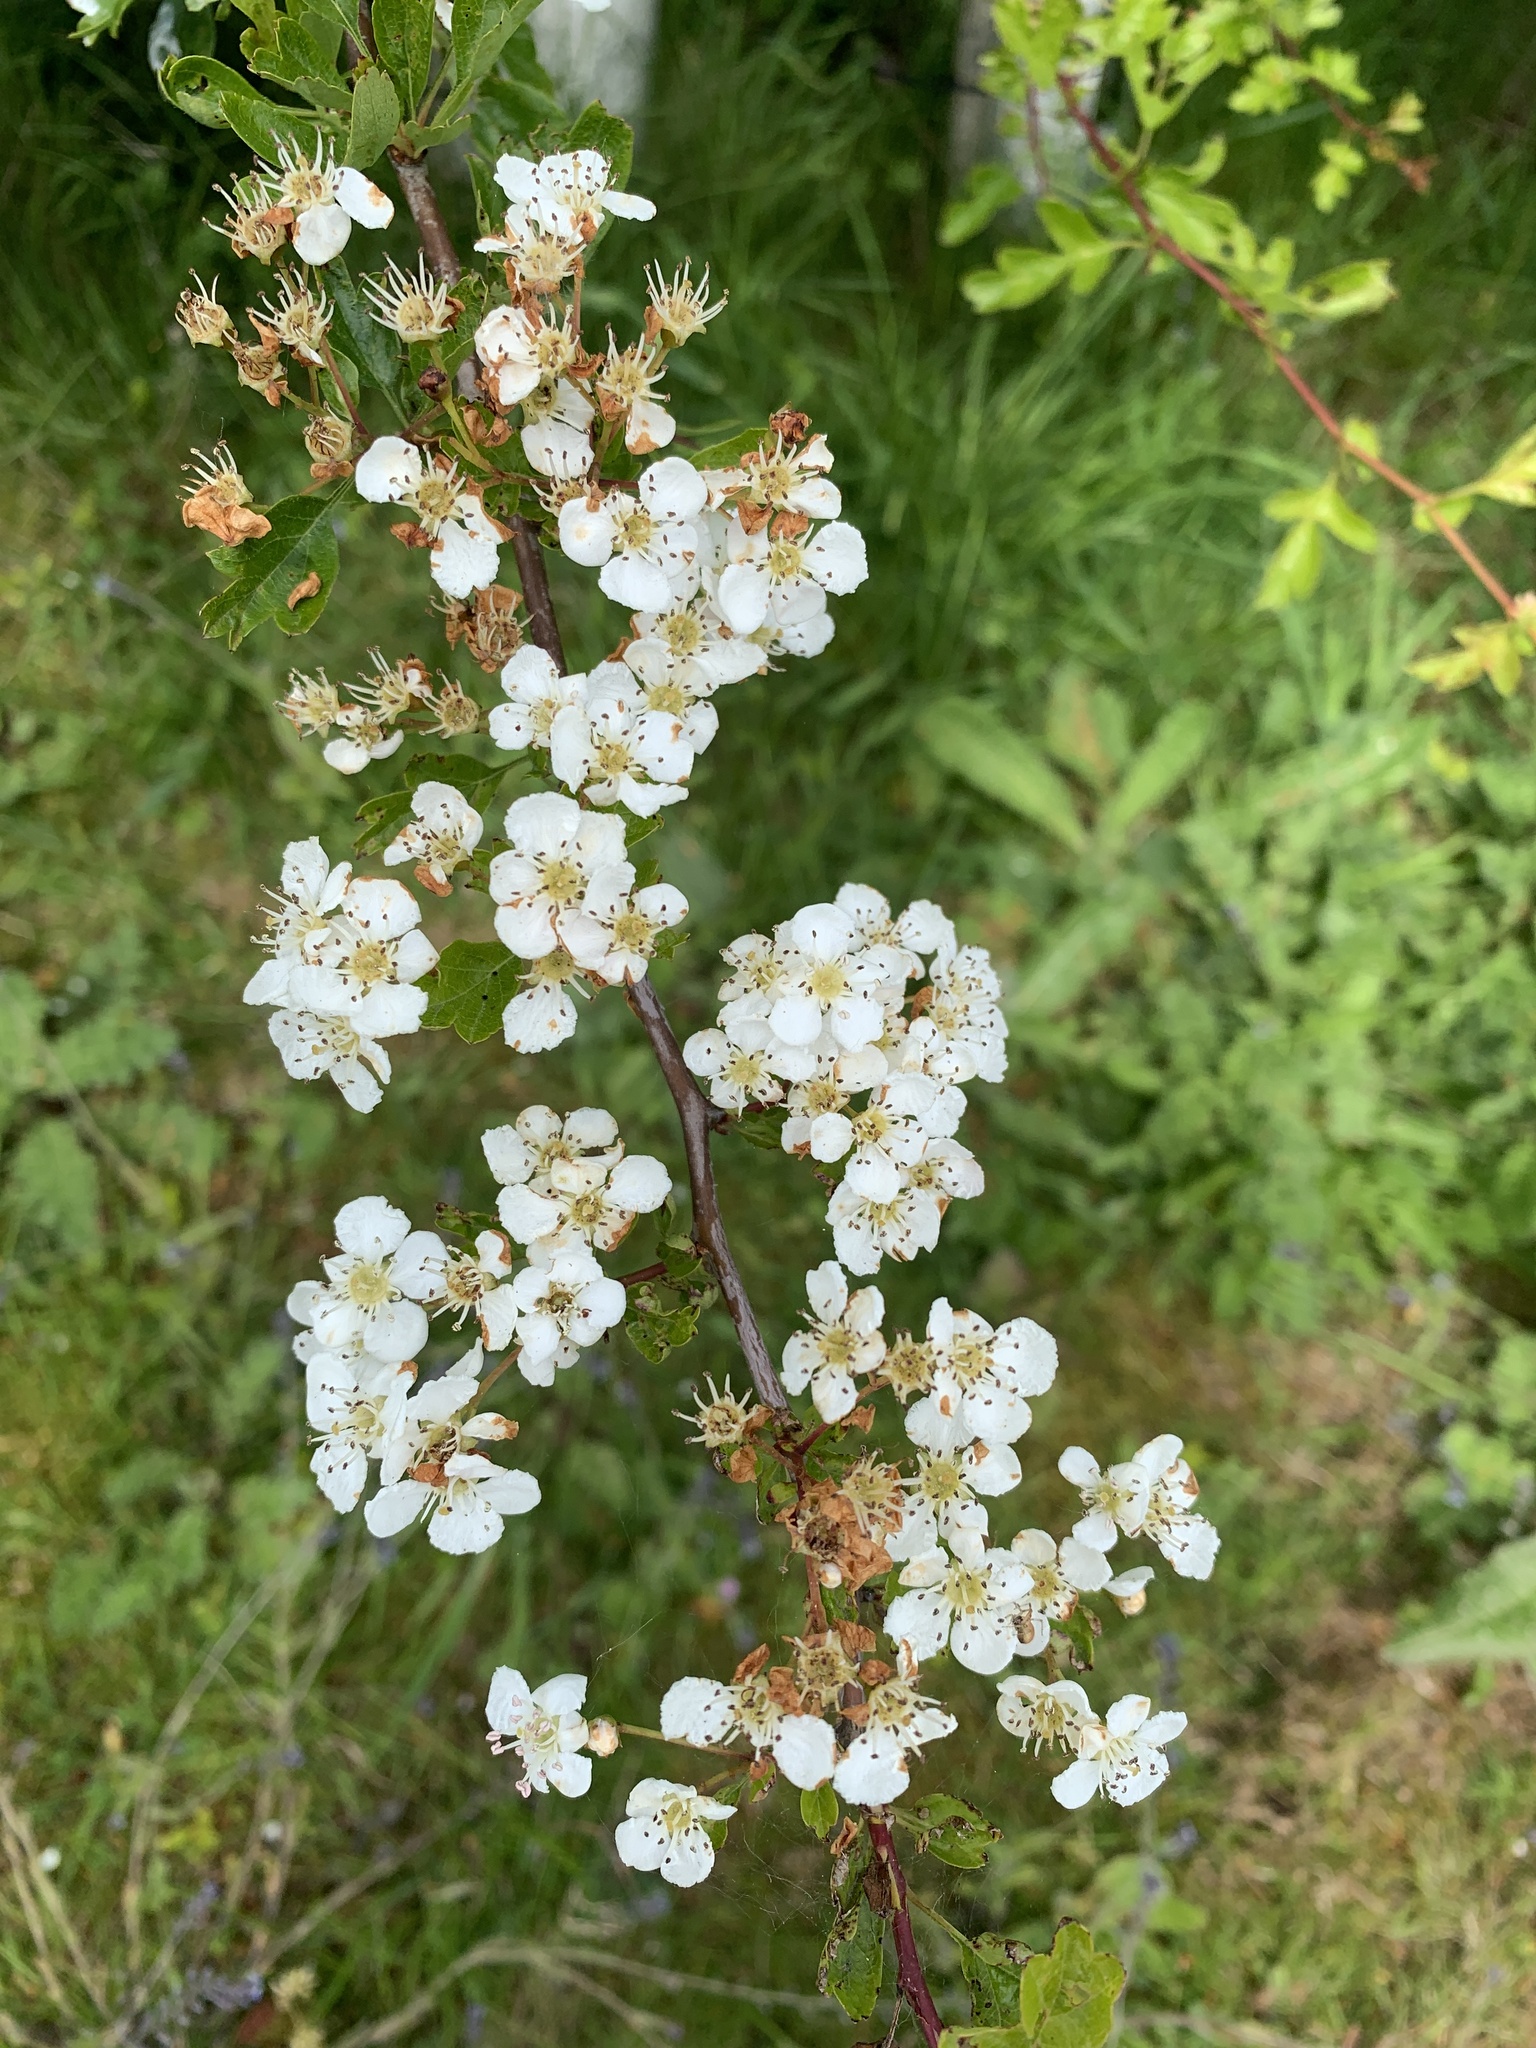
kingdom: Plantae
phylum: Tracheophyta
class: Magnoliopsida
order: Rosales
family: Rosaceae
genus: Crataegus
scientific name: Crataegus monogyna
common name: Hawthorn
